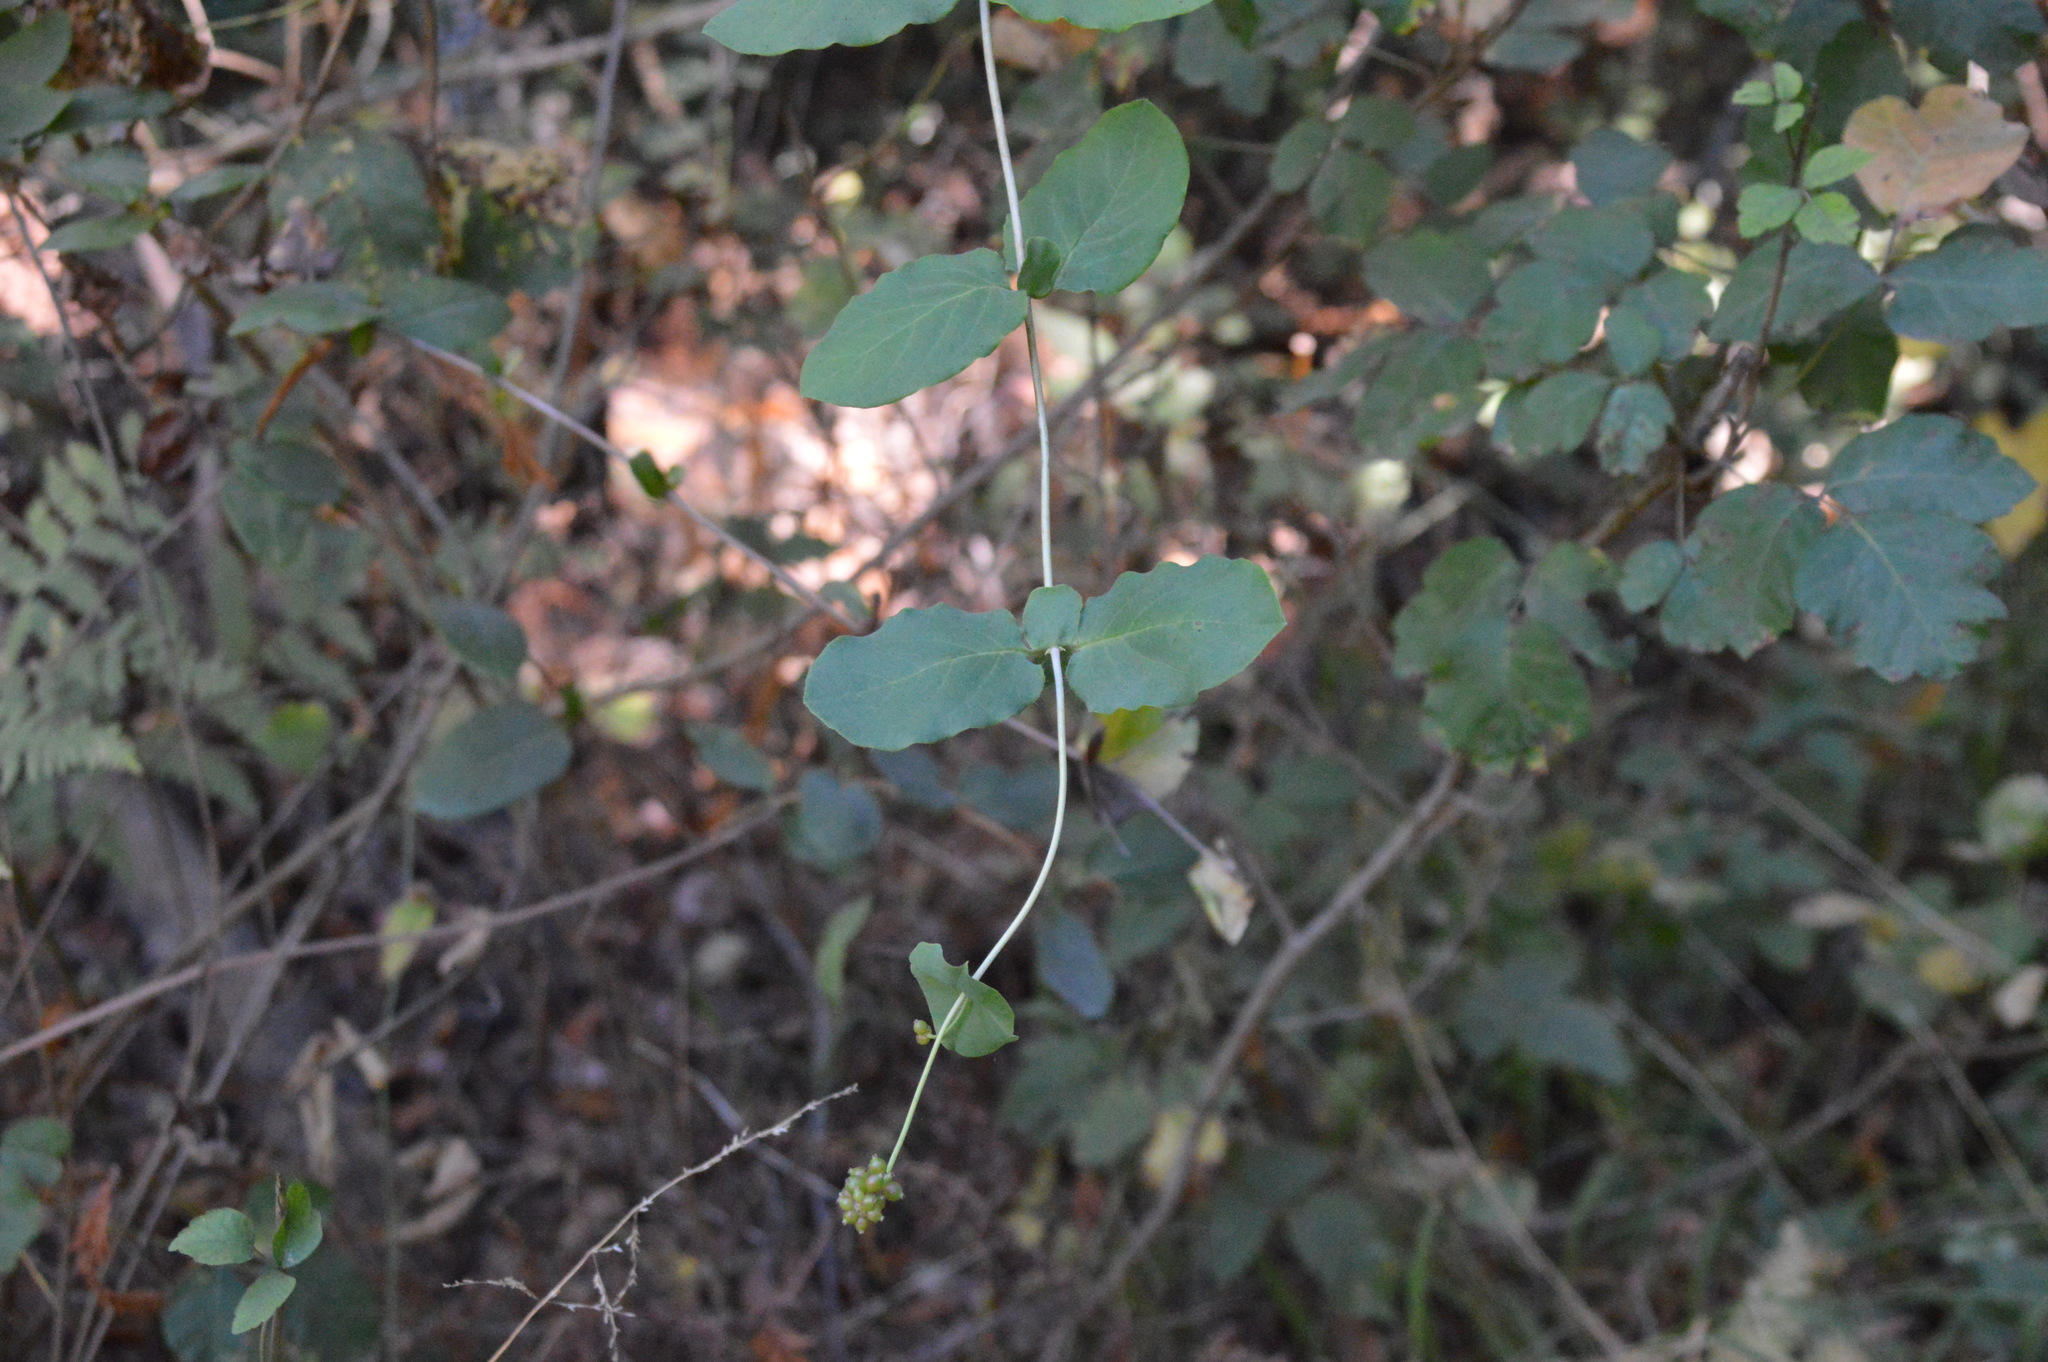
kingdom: Plantae
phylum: Tracheophyta
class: Magnoliopsida
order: Dipsacales
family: Caprifoliaceae
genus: Lonicera
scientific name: Lonicera hispidula
